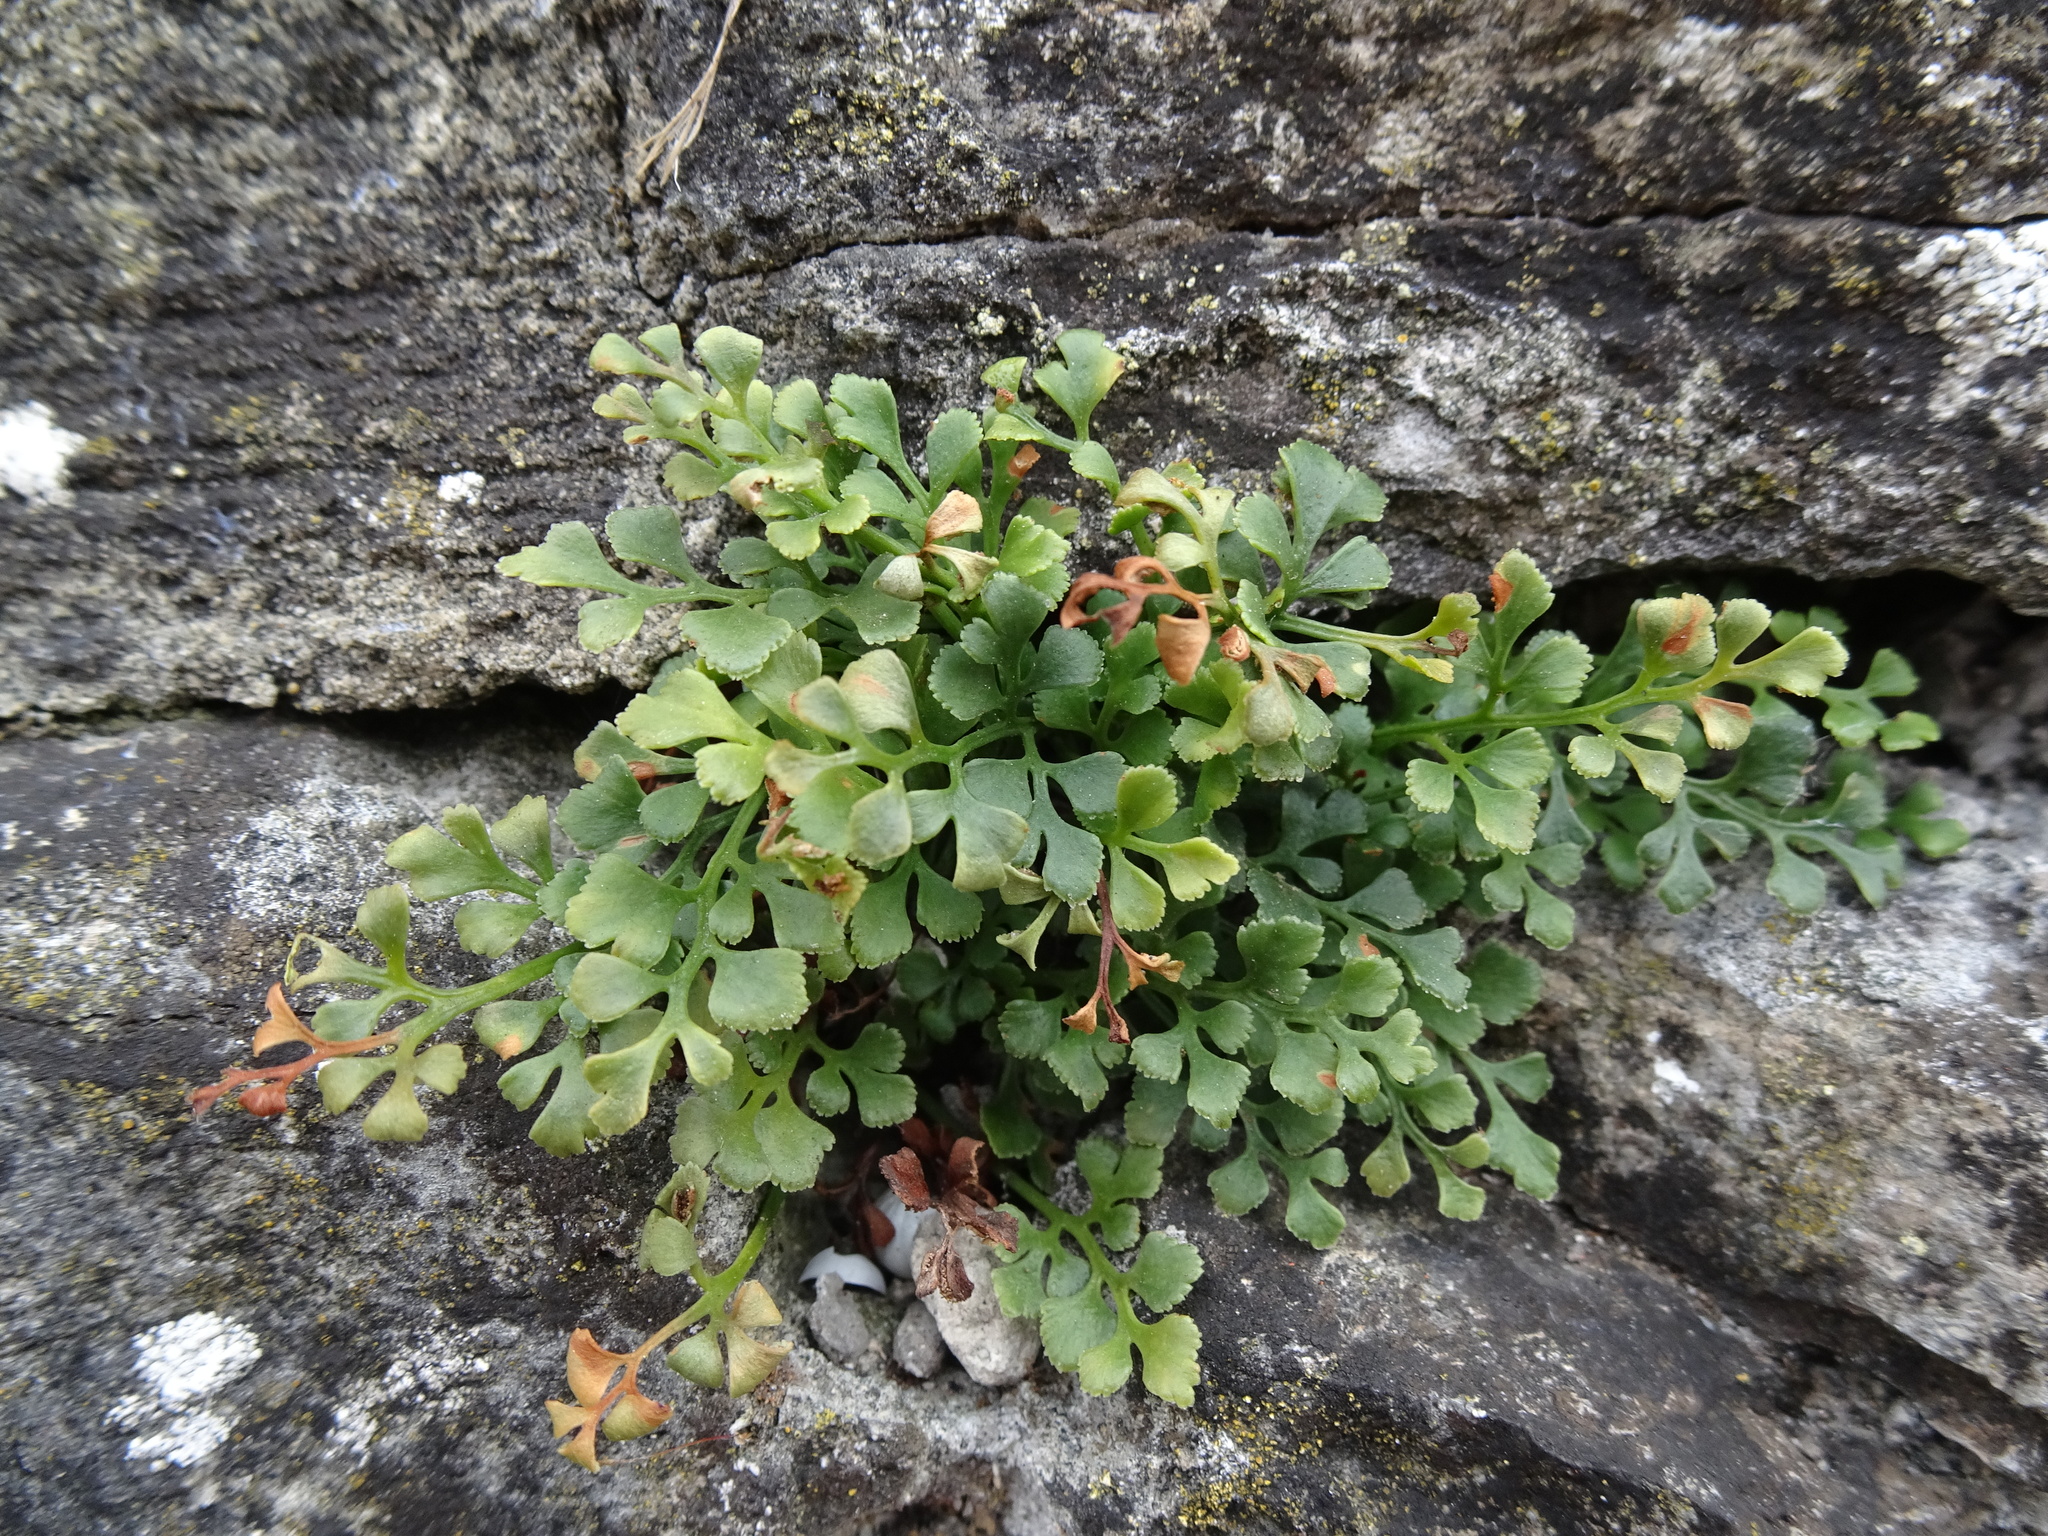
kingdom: Plantae
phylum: Tracheophyta
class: Polypodiopsida
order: Polypodiales
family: Aspleniaceae
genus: Asplenium
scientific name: Asplenium ruta-muraria
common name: Wall-rue
